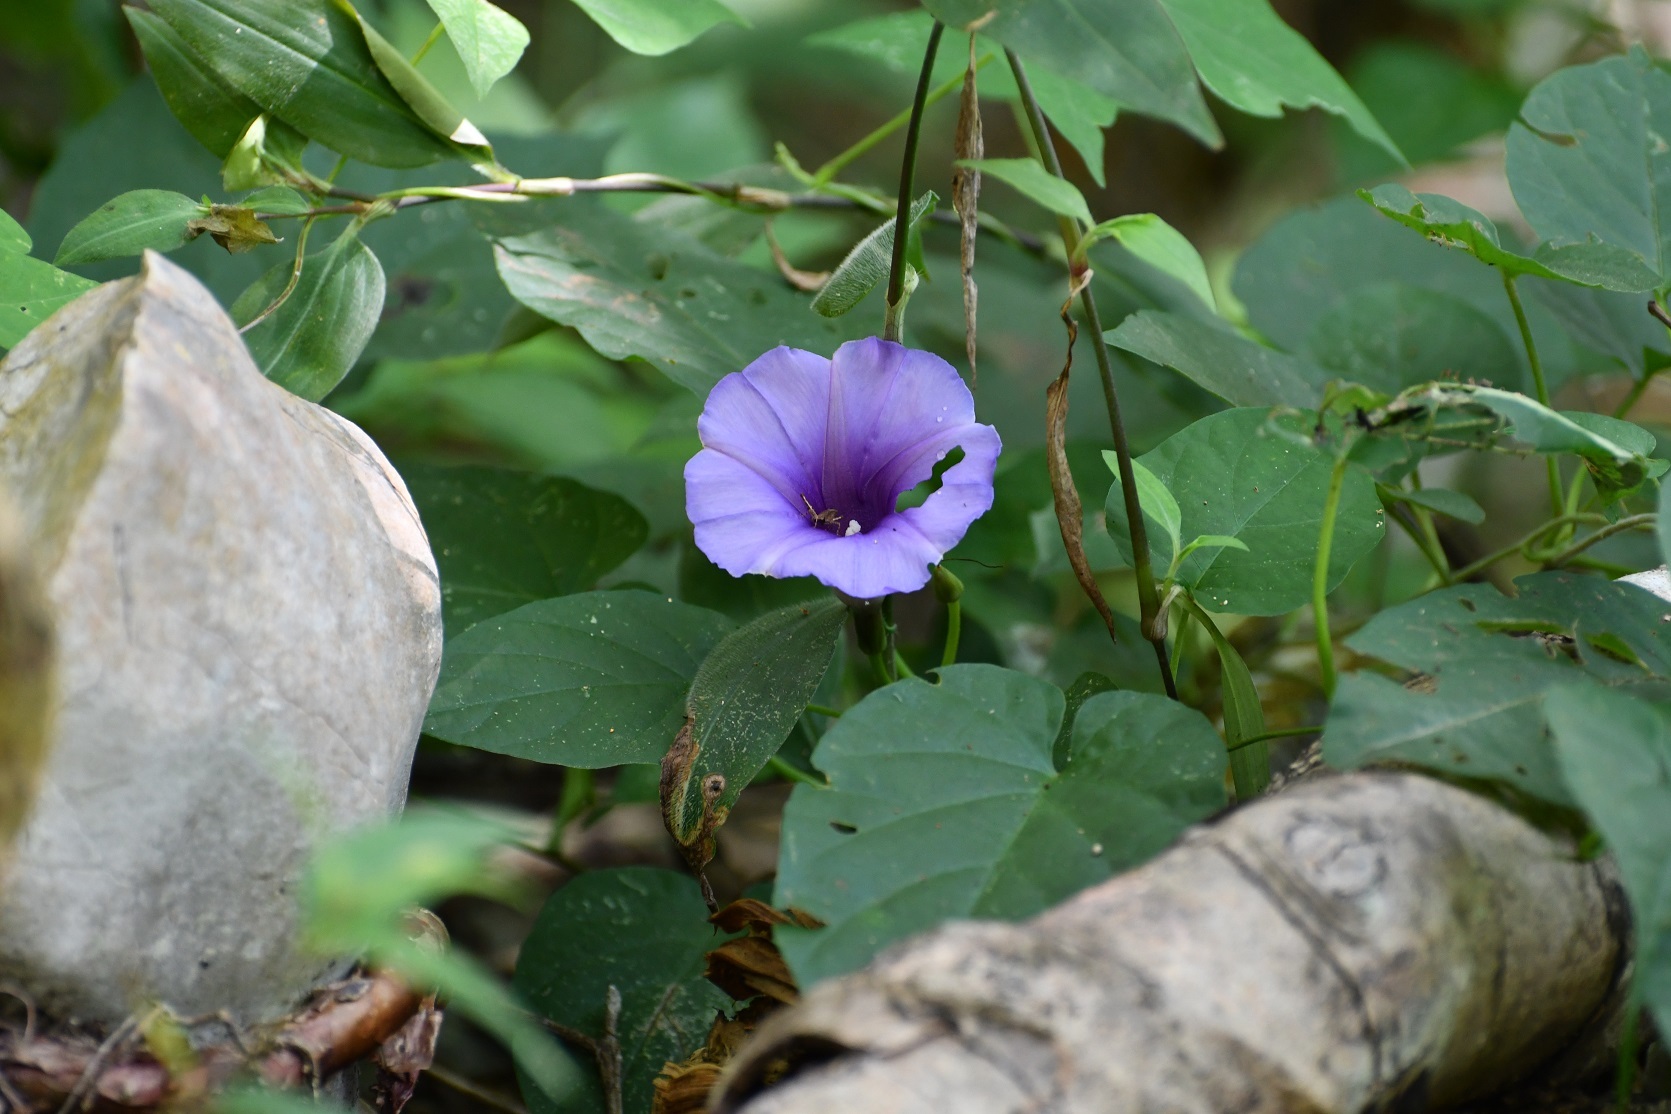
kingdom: Plantae
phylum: Tracheophyta
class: Magnoliopsida
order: Solanales
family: Convolvulaceae
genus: Ipomoea
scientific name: Ipomoea lindenii
